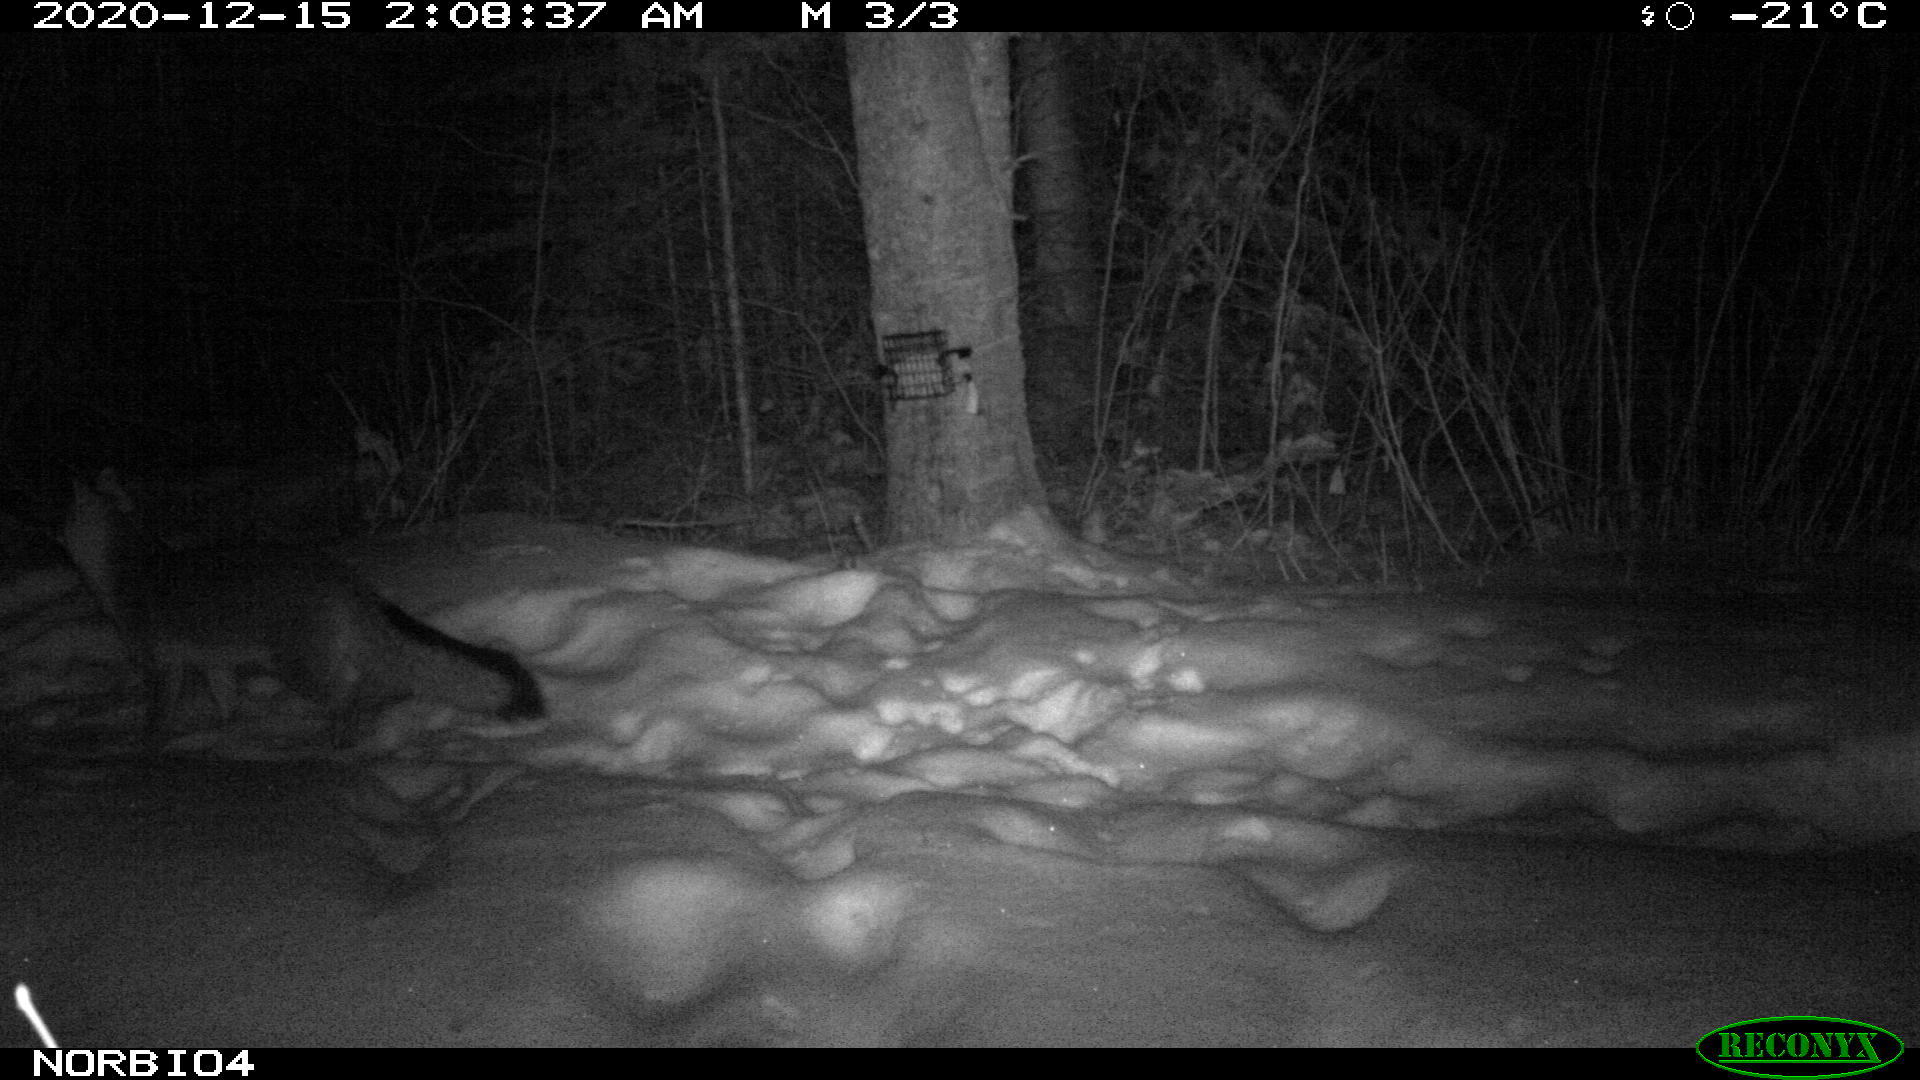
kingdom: Animalia
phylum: Chordata
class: Mammalia
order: Carnivora
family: Canidae
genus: Urocyon
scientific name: Urocyon cinereoargenteus
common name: Gray fox
